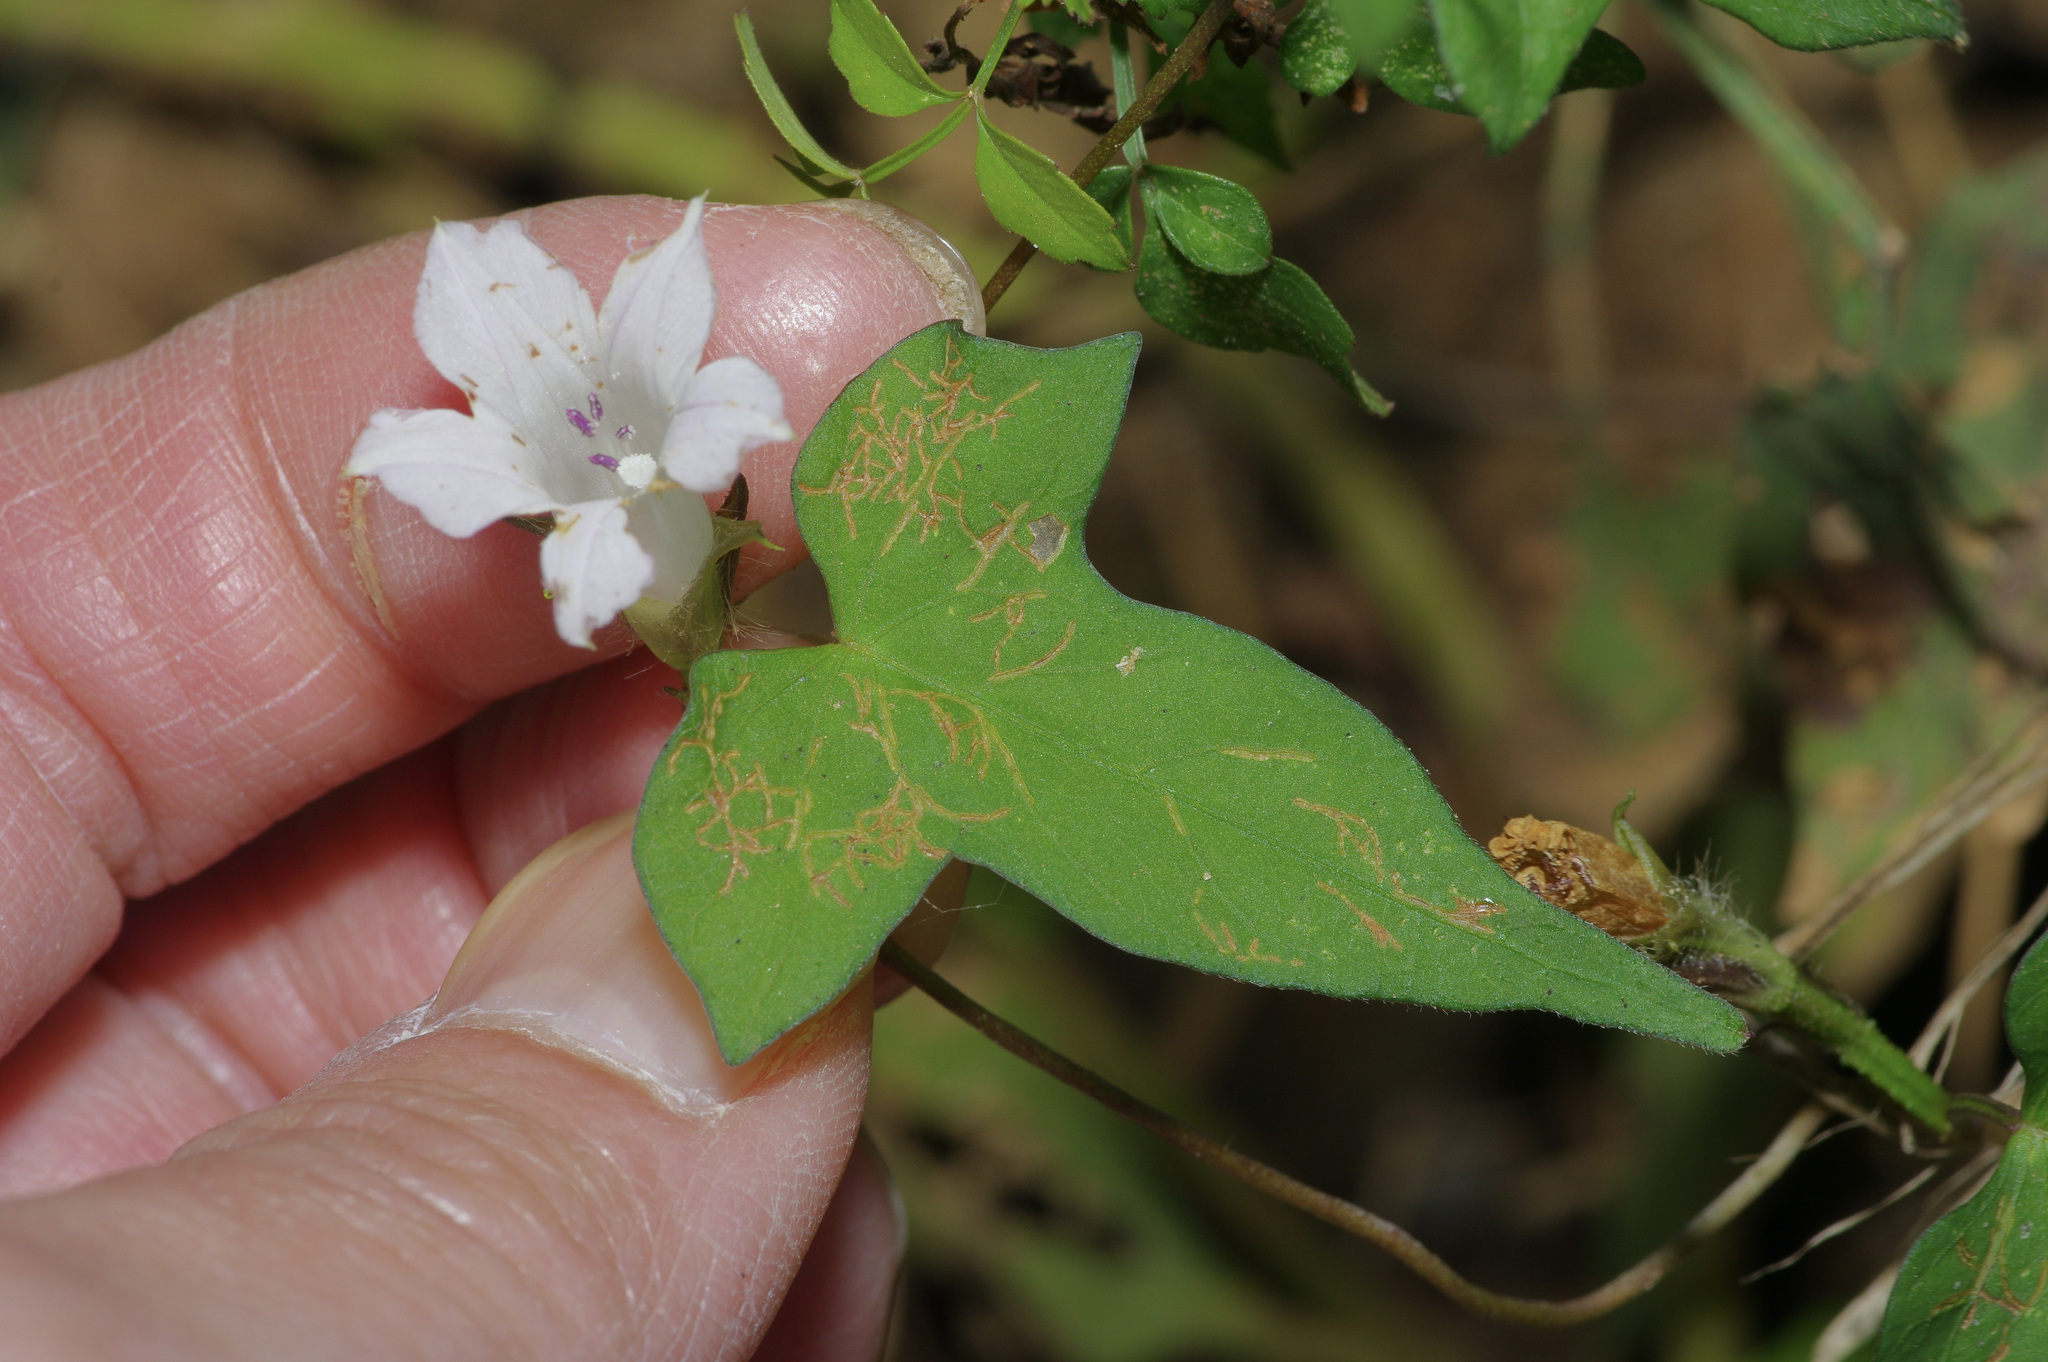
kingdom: Plantae
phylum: Tracheophyta
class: Magnoliopsida
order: Solanales
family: Convolvulaceae
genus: Ipomoea
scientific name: Ipomoea lacunosa
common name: White morning-glory
